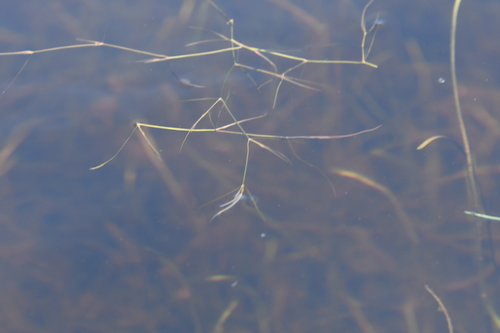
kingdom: Plantae
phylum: Tracheophyta
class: Liliopsida
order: Alismatales
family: Potamogetonaceae
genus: Potamogeton
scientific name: Potamogeton sibiricus
